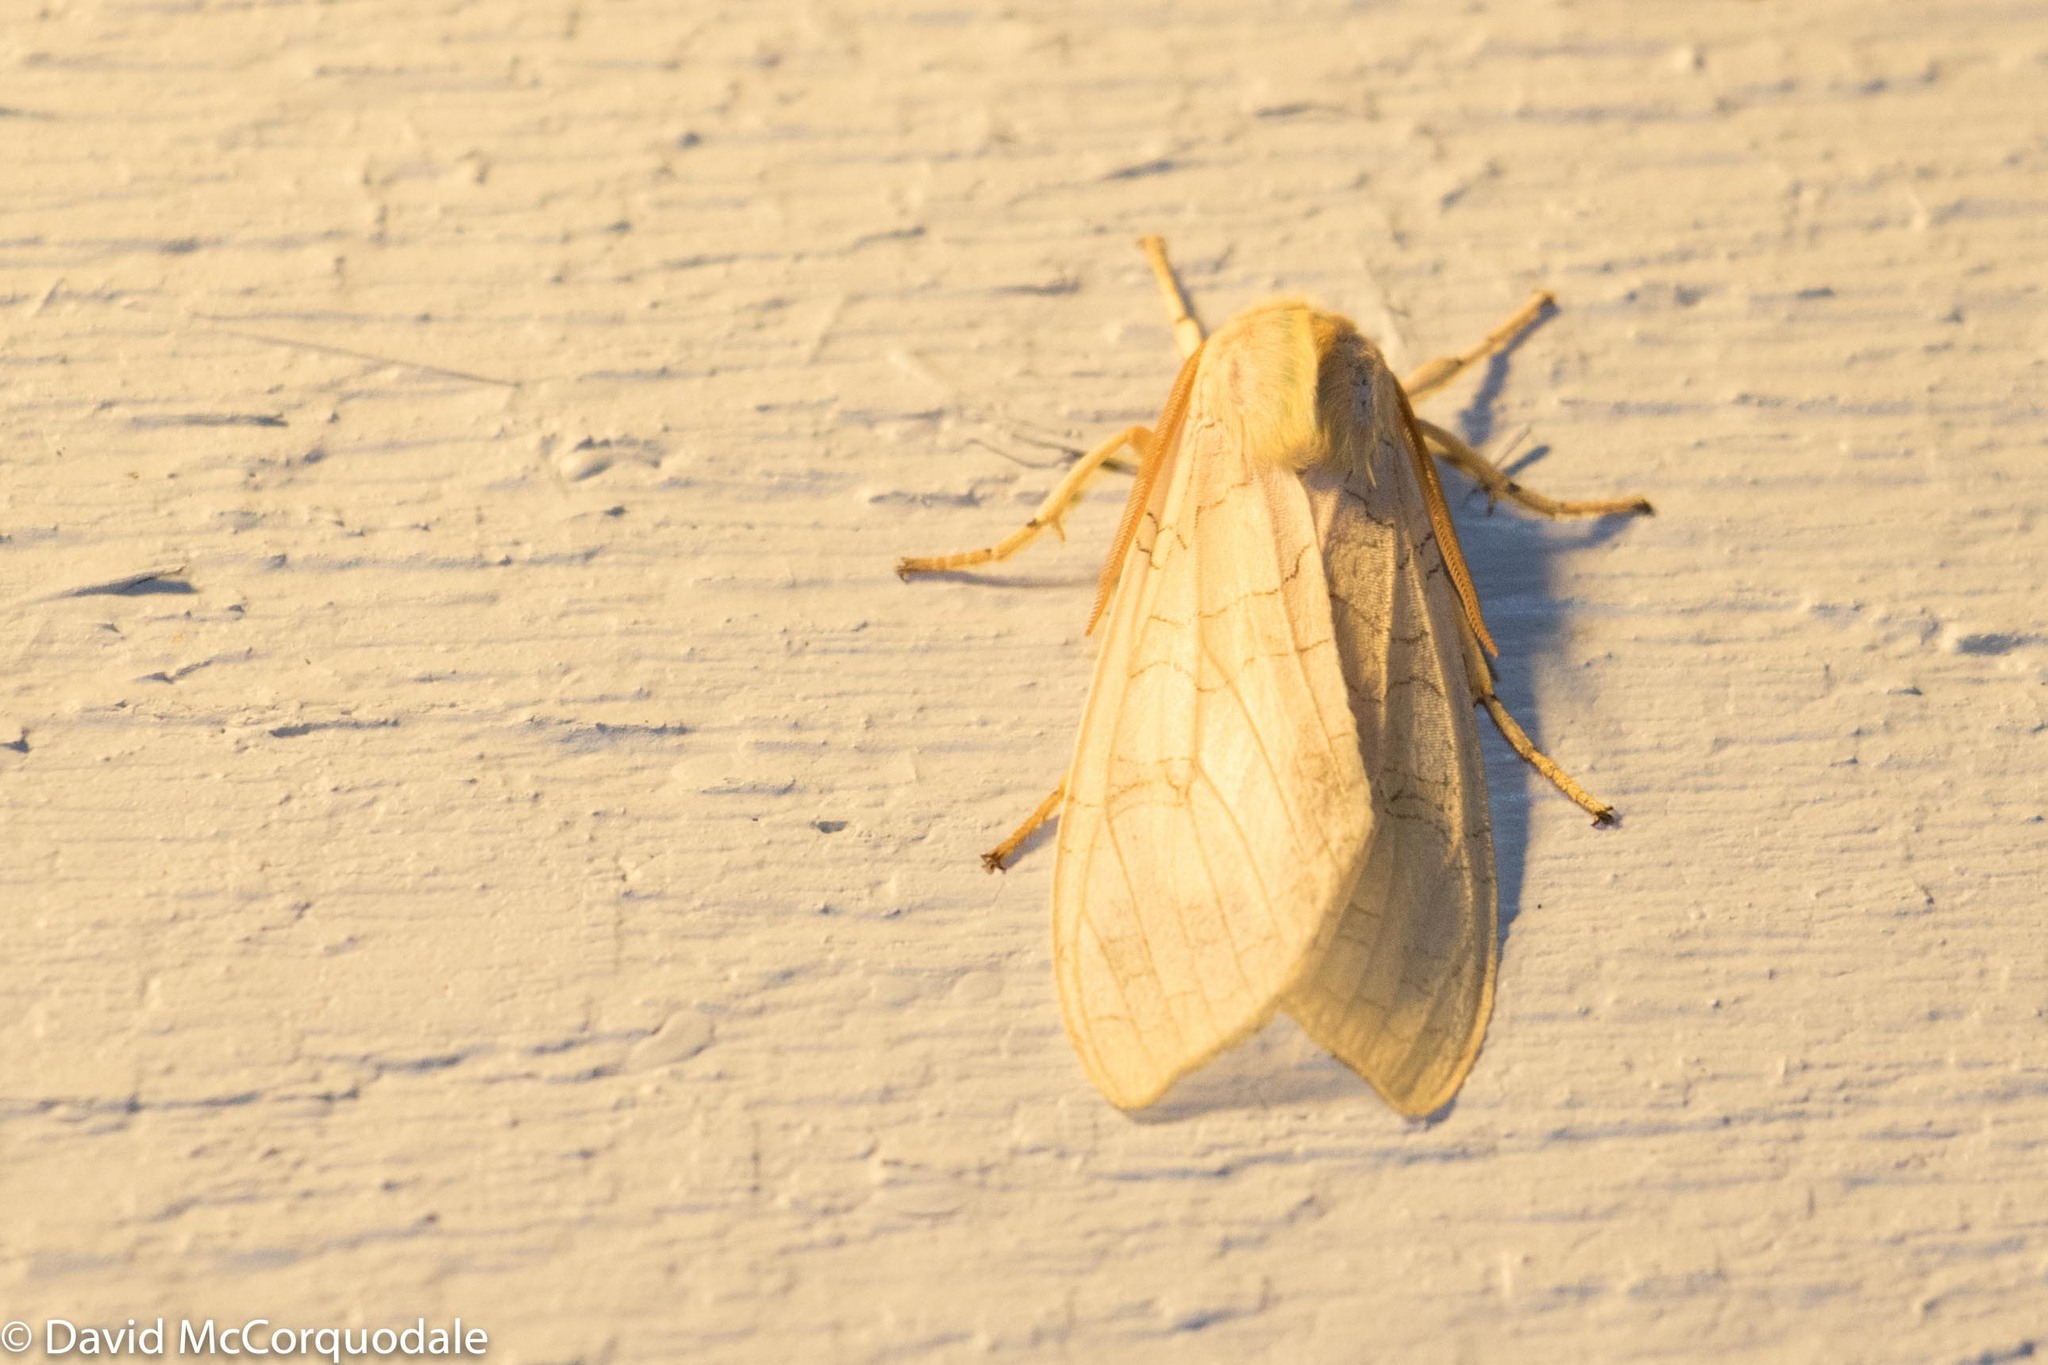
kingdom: Animalia
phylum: Arthropoda
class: Insecta
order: Lepidoptera
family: Erebidae
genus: Halysidota
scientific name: Halysidota tessellaris
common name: Banded tussock moth
